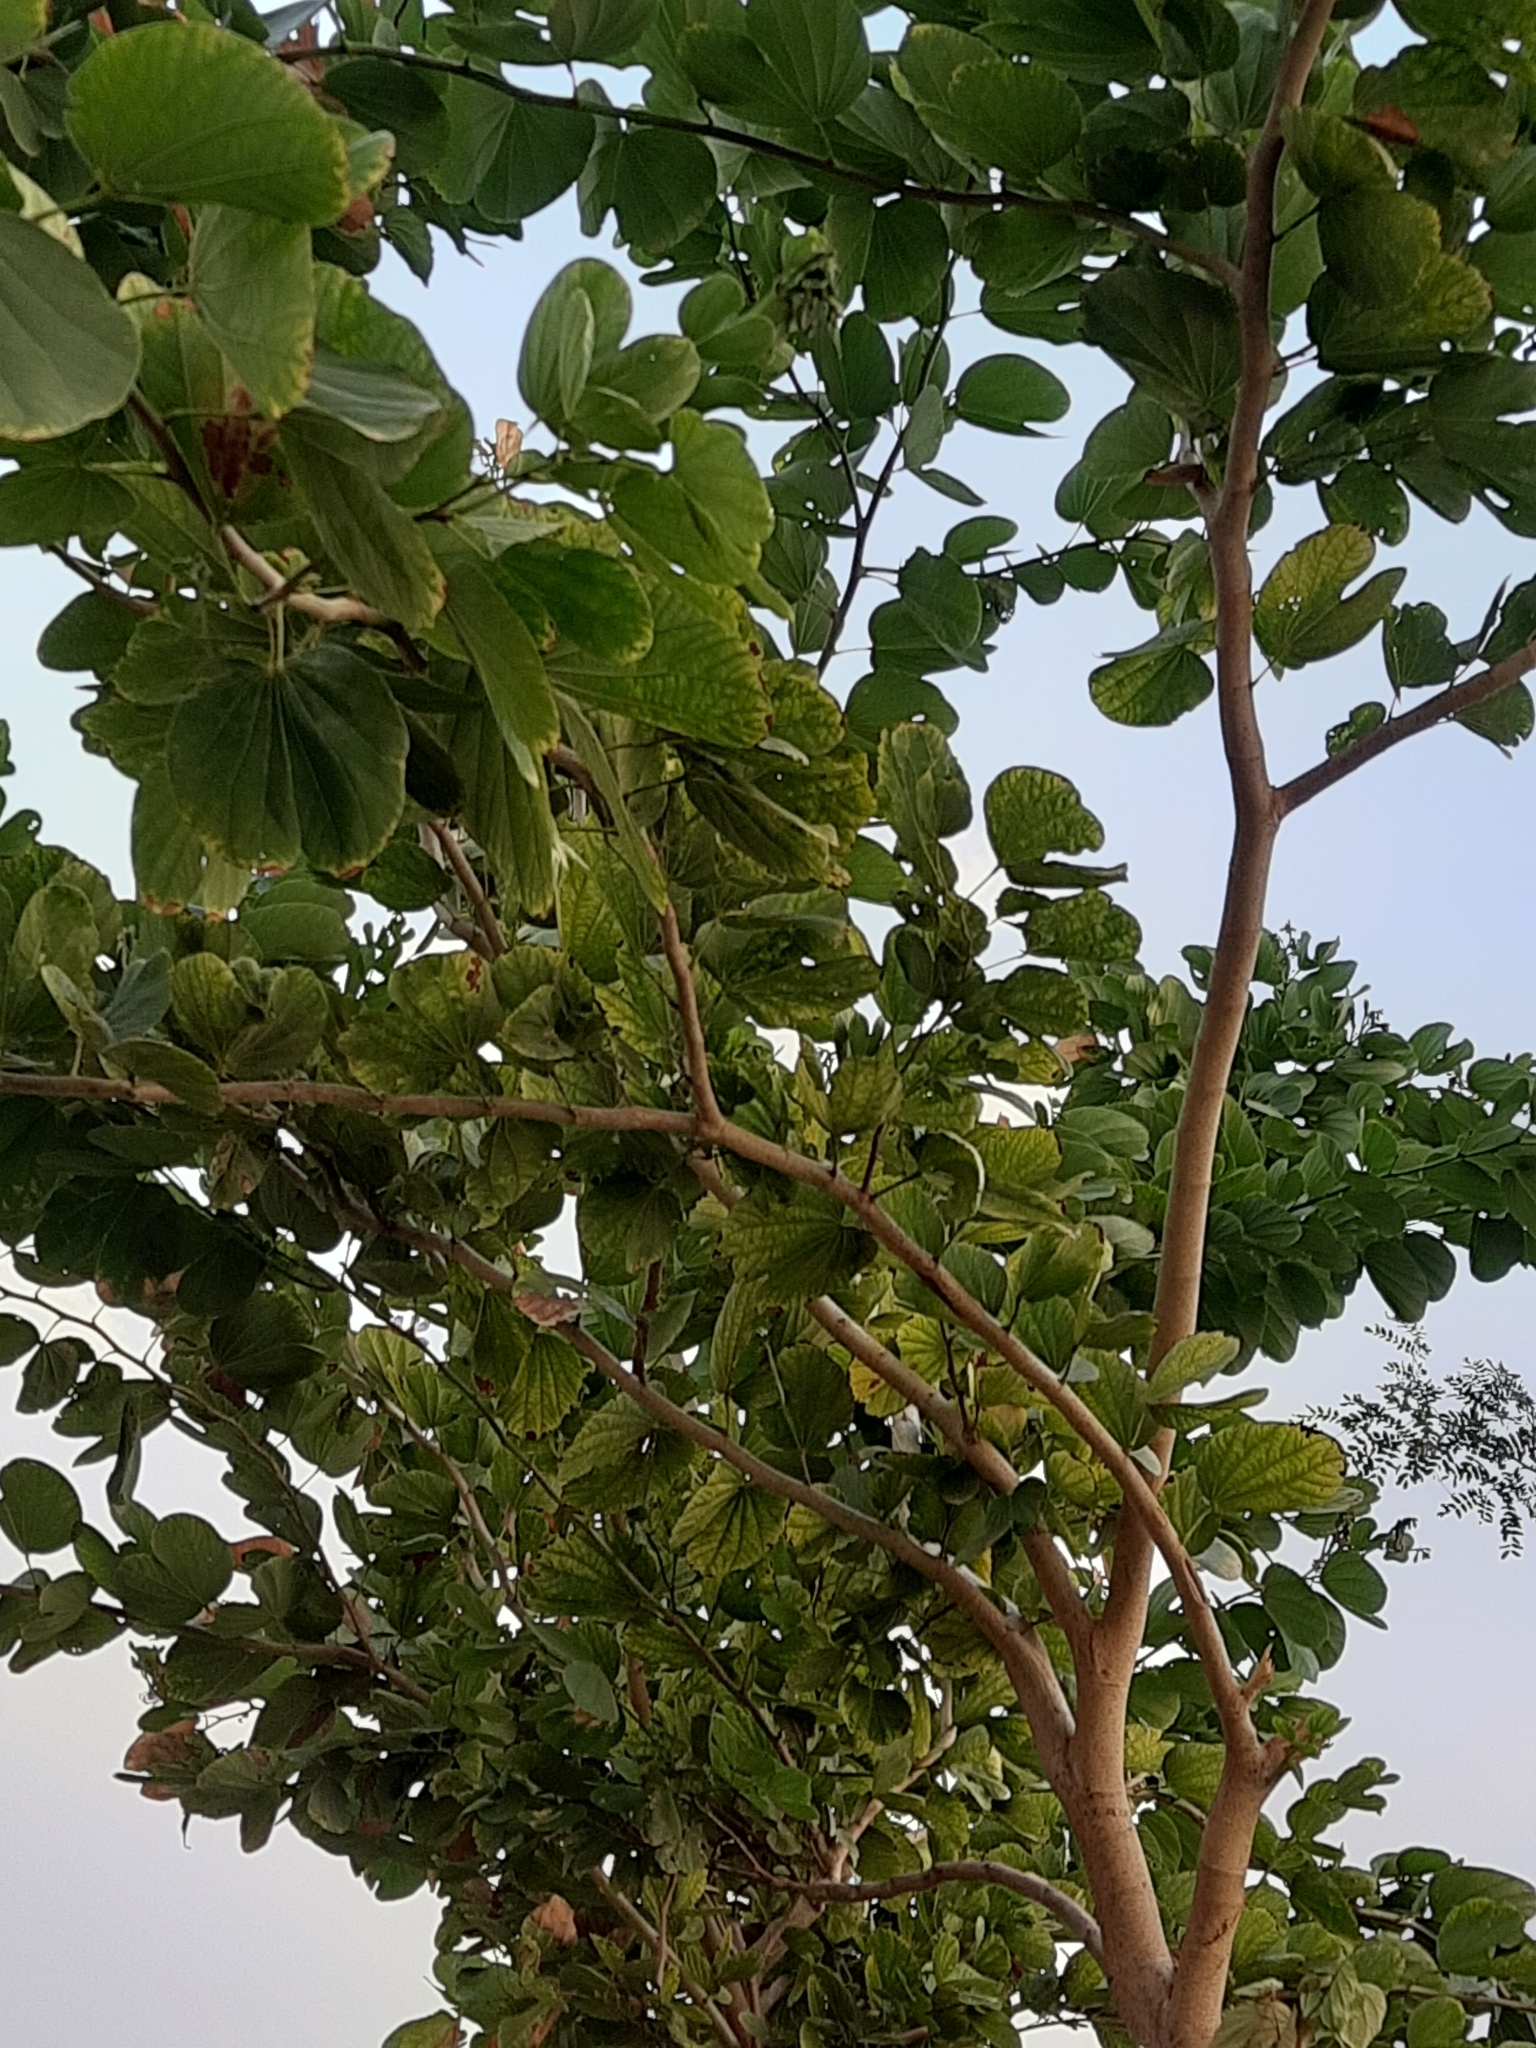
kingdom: Plantae
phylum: Tracheophyta
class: Magnoliopsida
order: Fabales
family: Fabaceae
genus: Bauhinia
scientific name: Bauhinia purpurea
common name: Butterfly-tree
